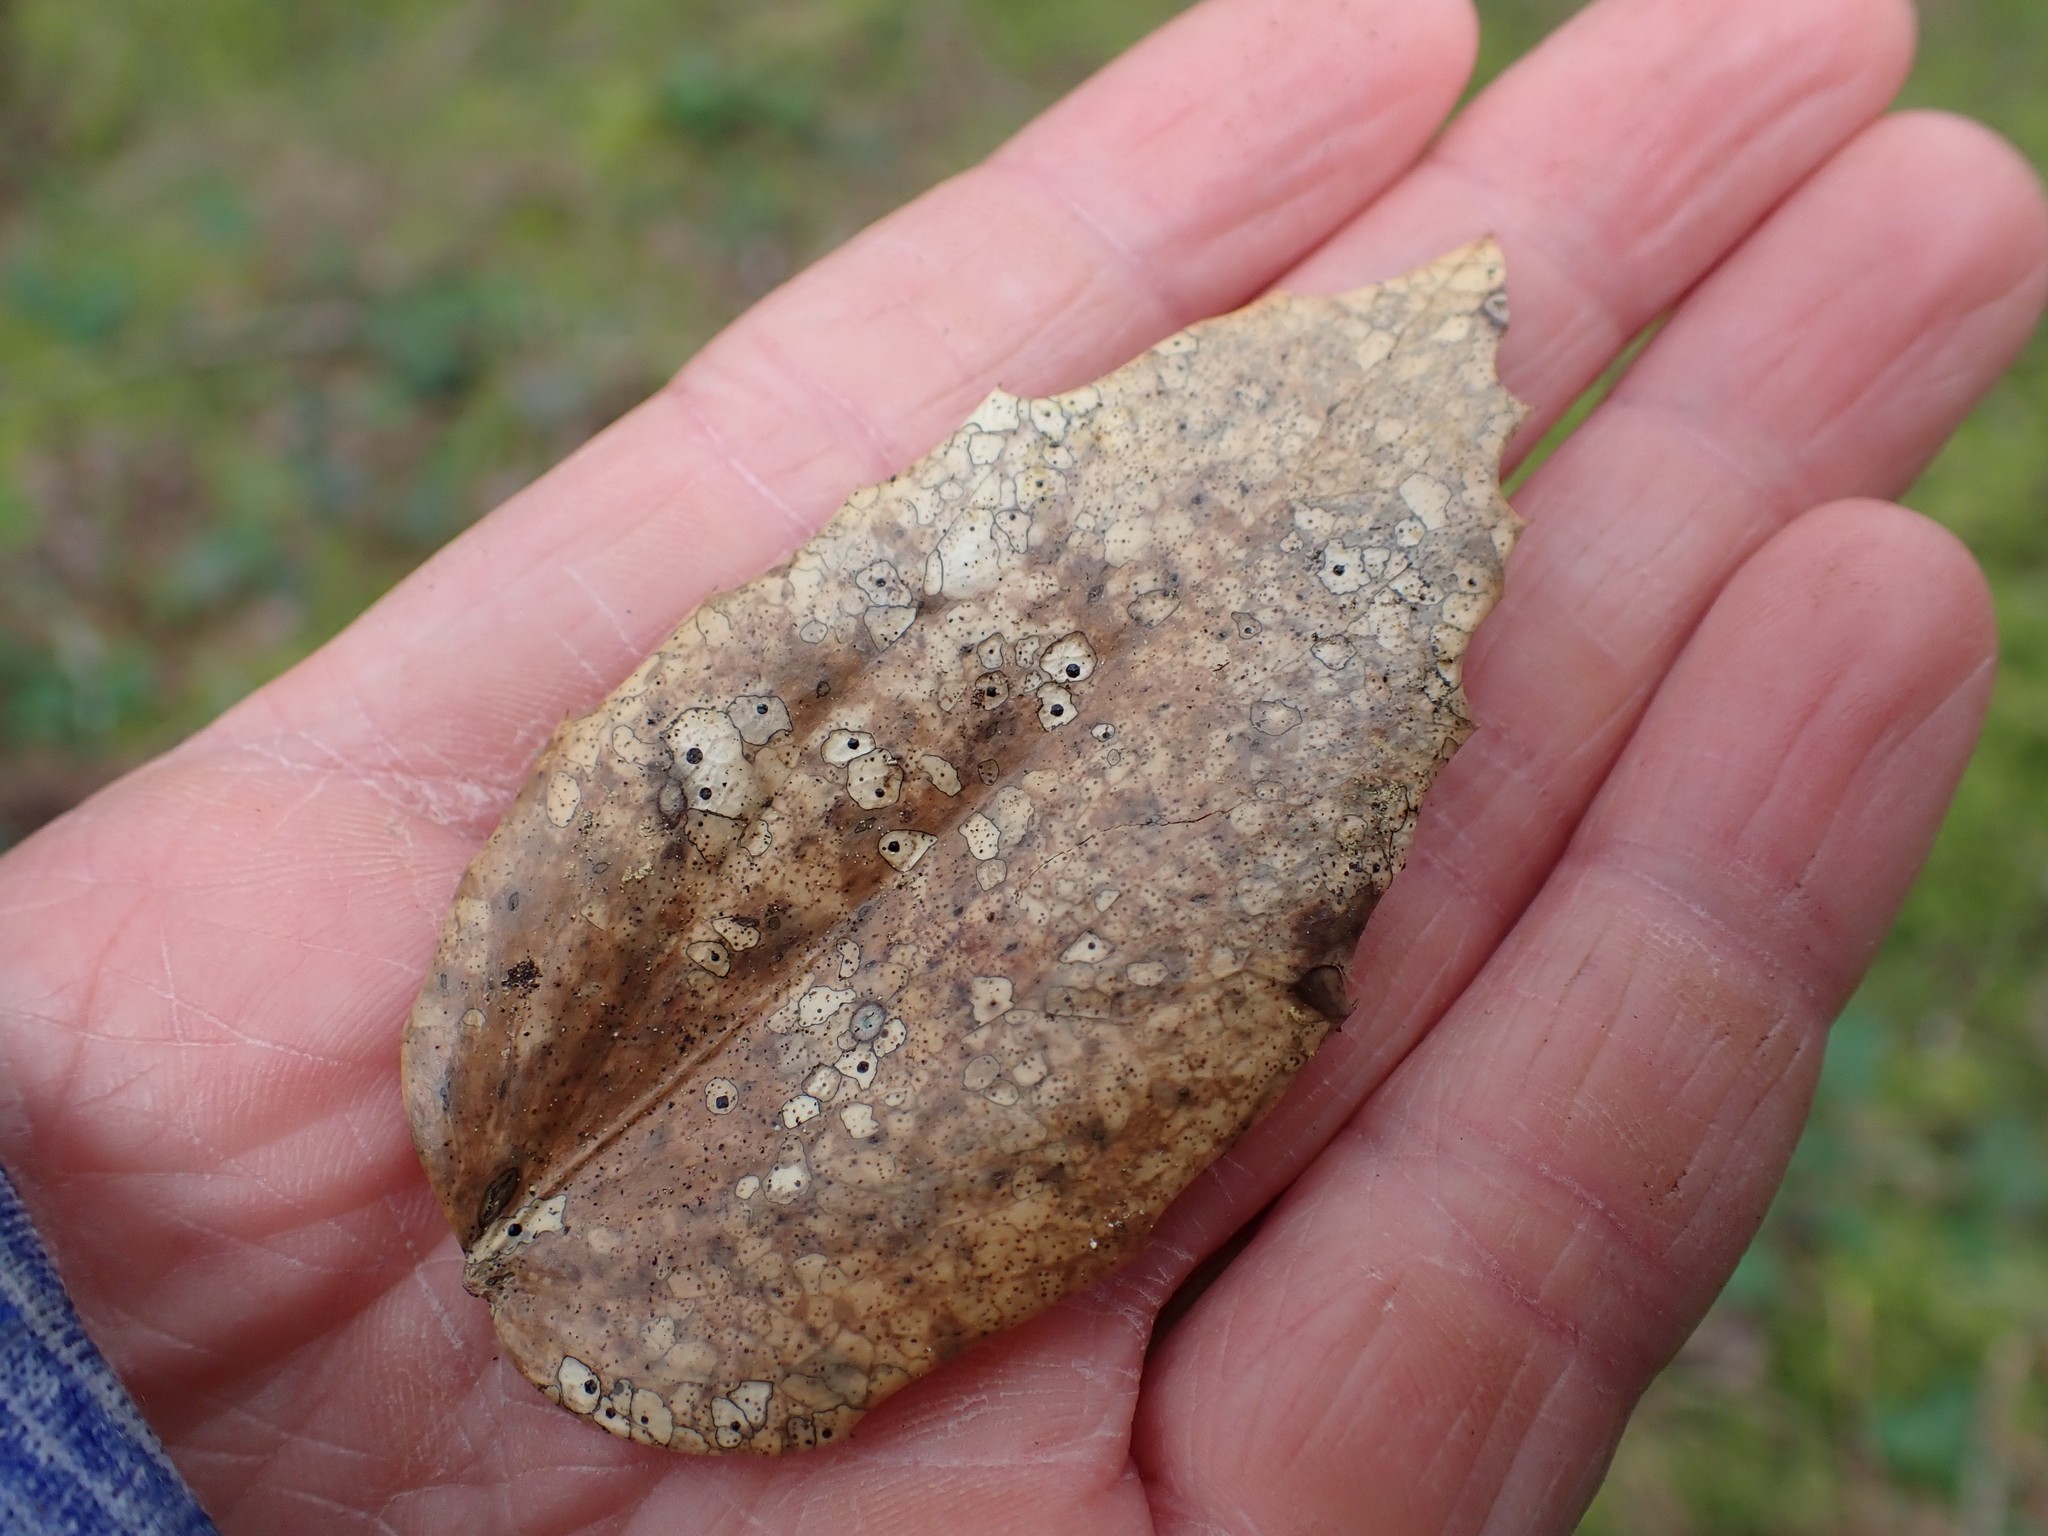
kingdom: Fungi
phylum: Ascomycota
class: Leotiomycetes
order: Rhytismatales
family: Rhytismataceae
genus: Coccomyces
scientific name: Coccomyces dentatus
